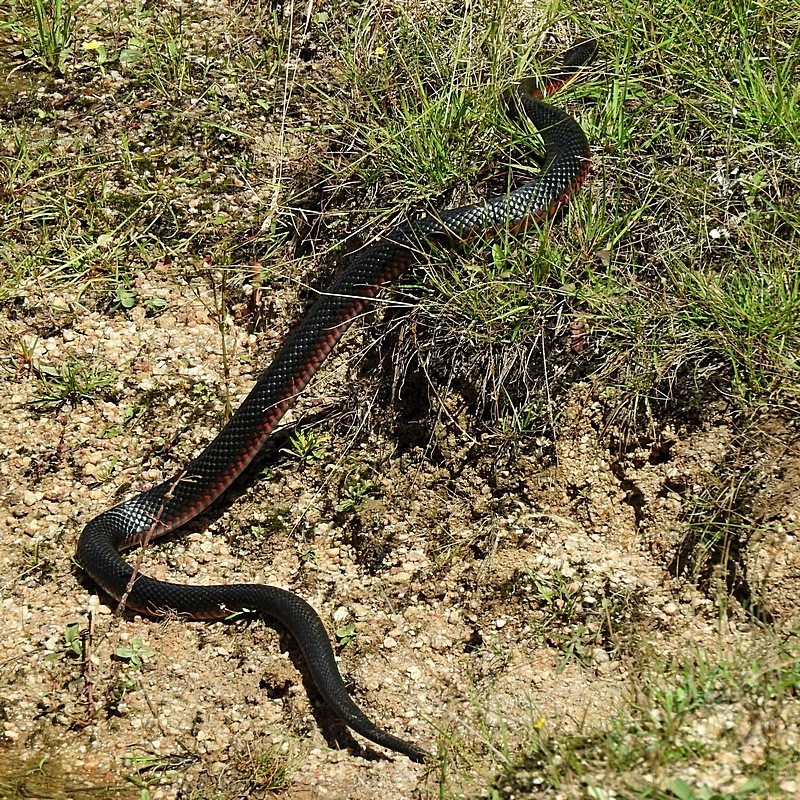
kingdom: Animalia
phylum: Chordata
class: Squamata
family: Elapidae
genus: Pseudechis
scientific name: Pseudechis porphyriacus
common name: Australian black snake
